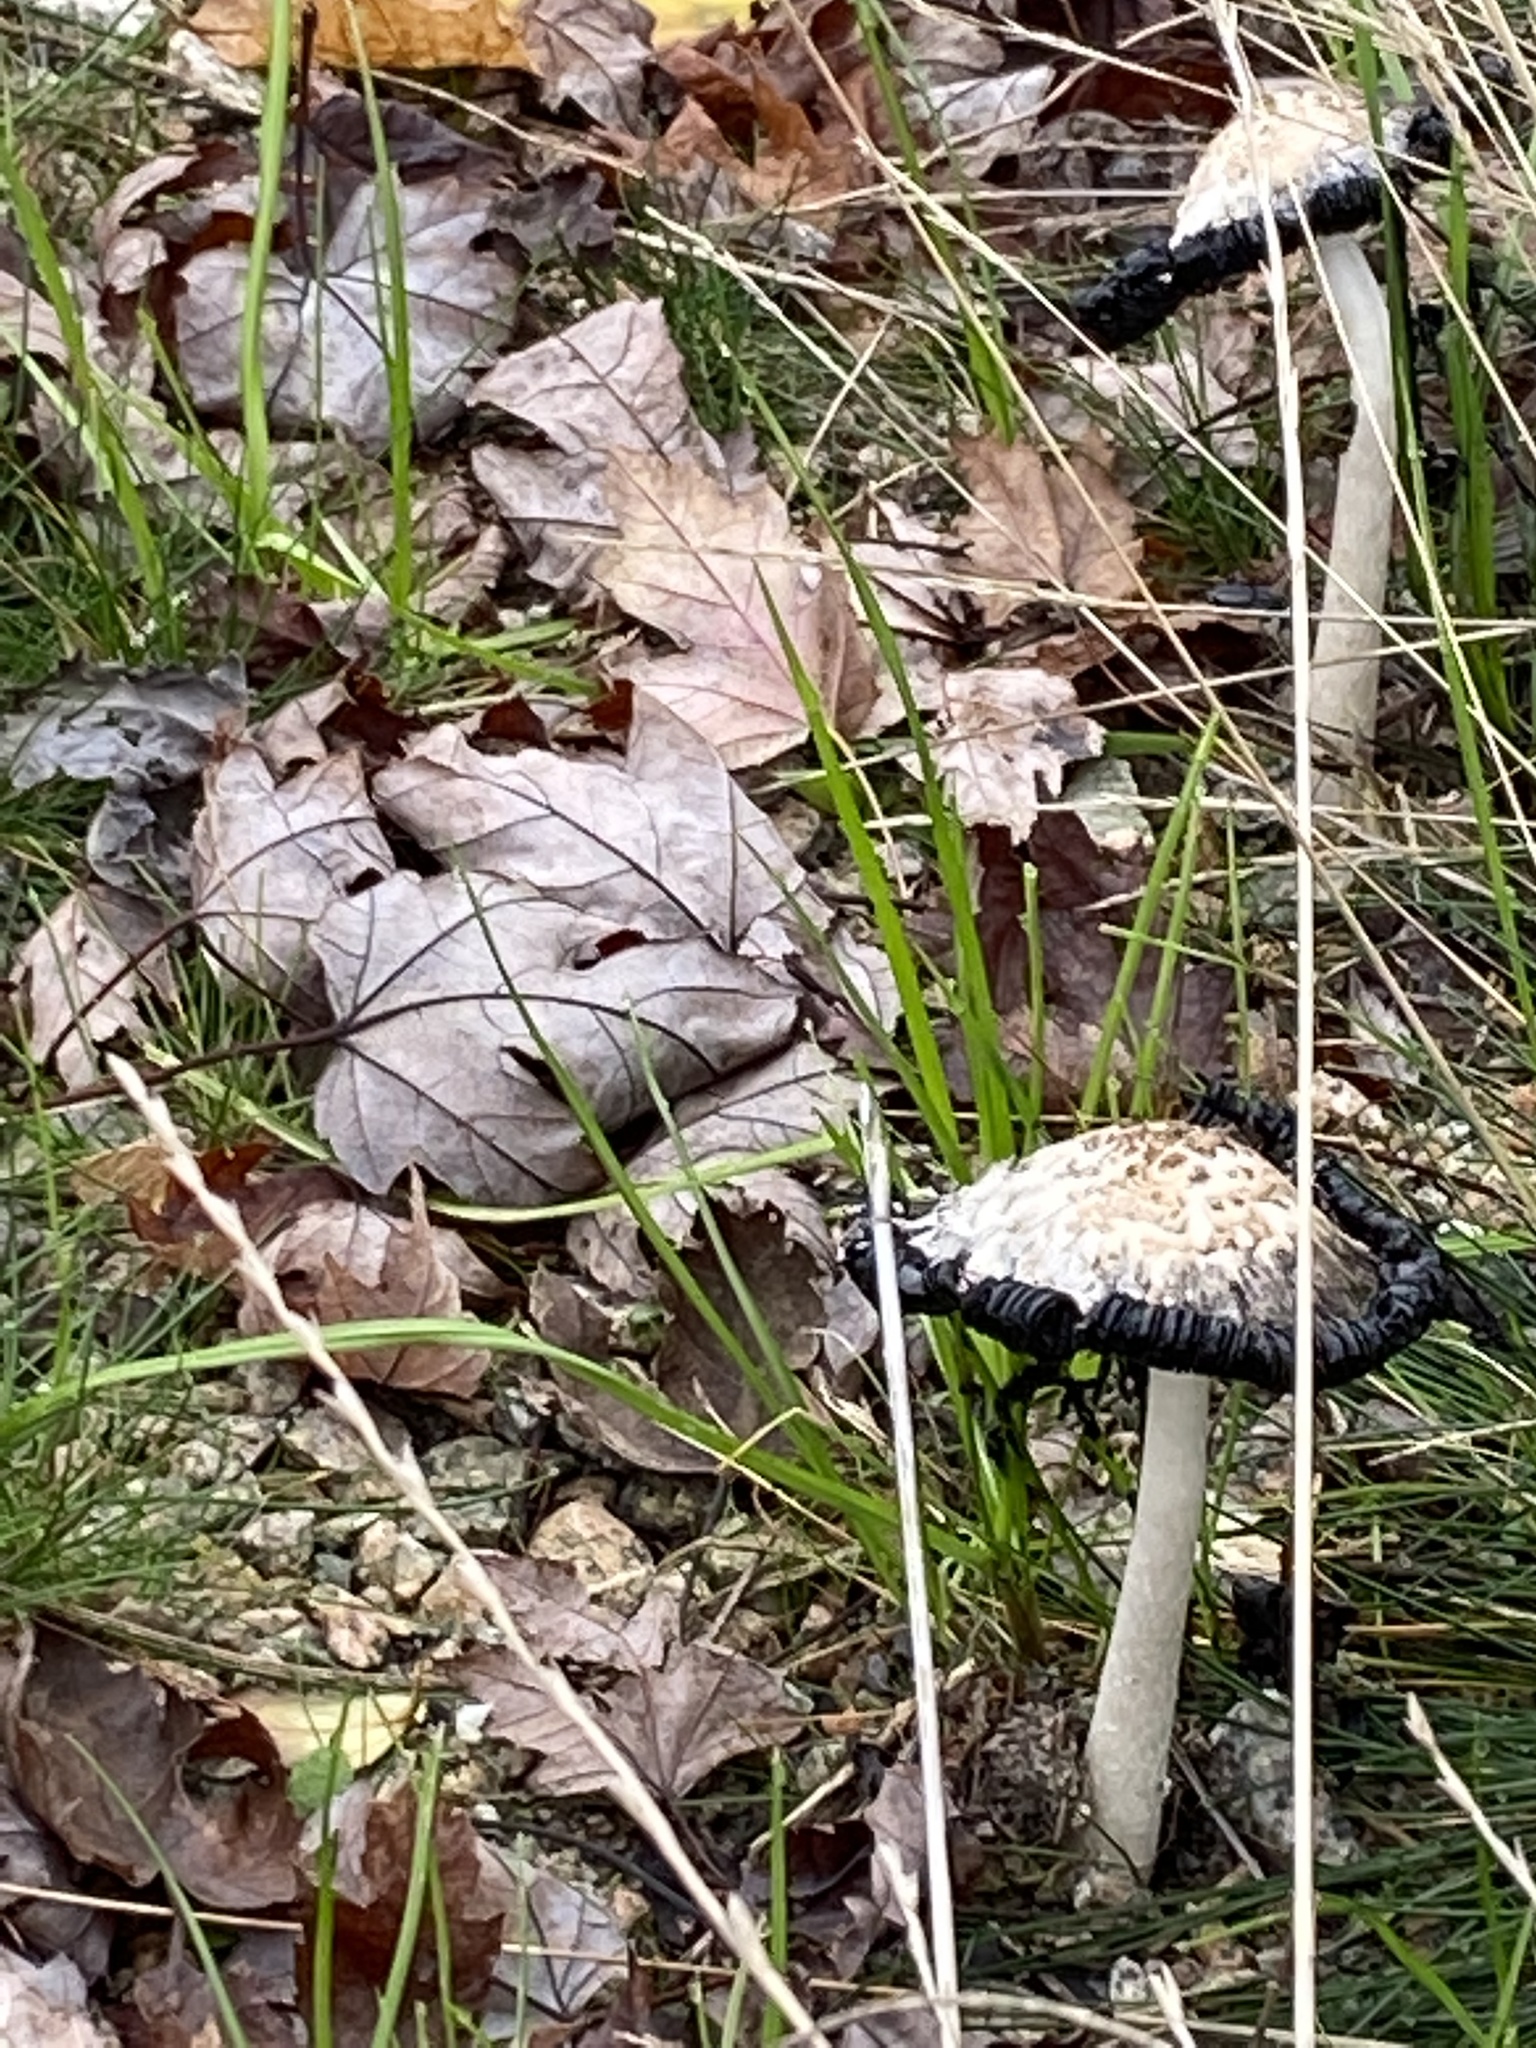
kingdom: Fungi
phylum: Basidiomycota
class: Agaricomycetes
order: Agaricales
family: Agaricaceae
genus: Coprinus
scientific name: Coprinus comatus
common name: Lawyer's wig
